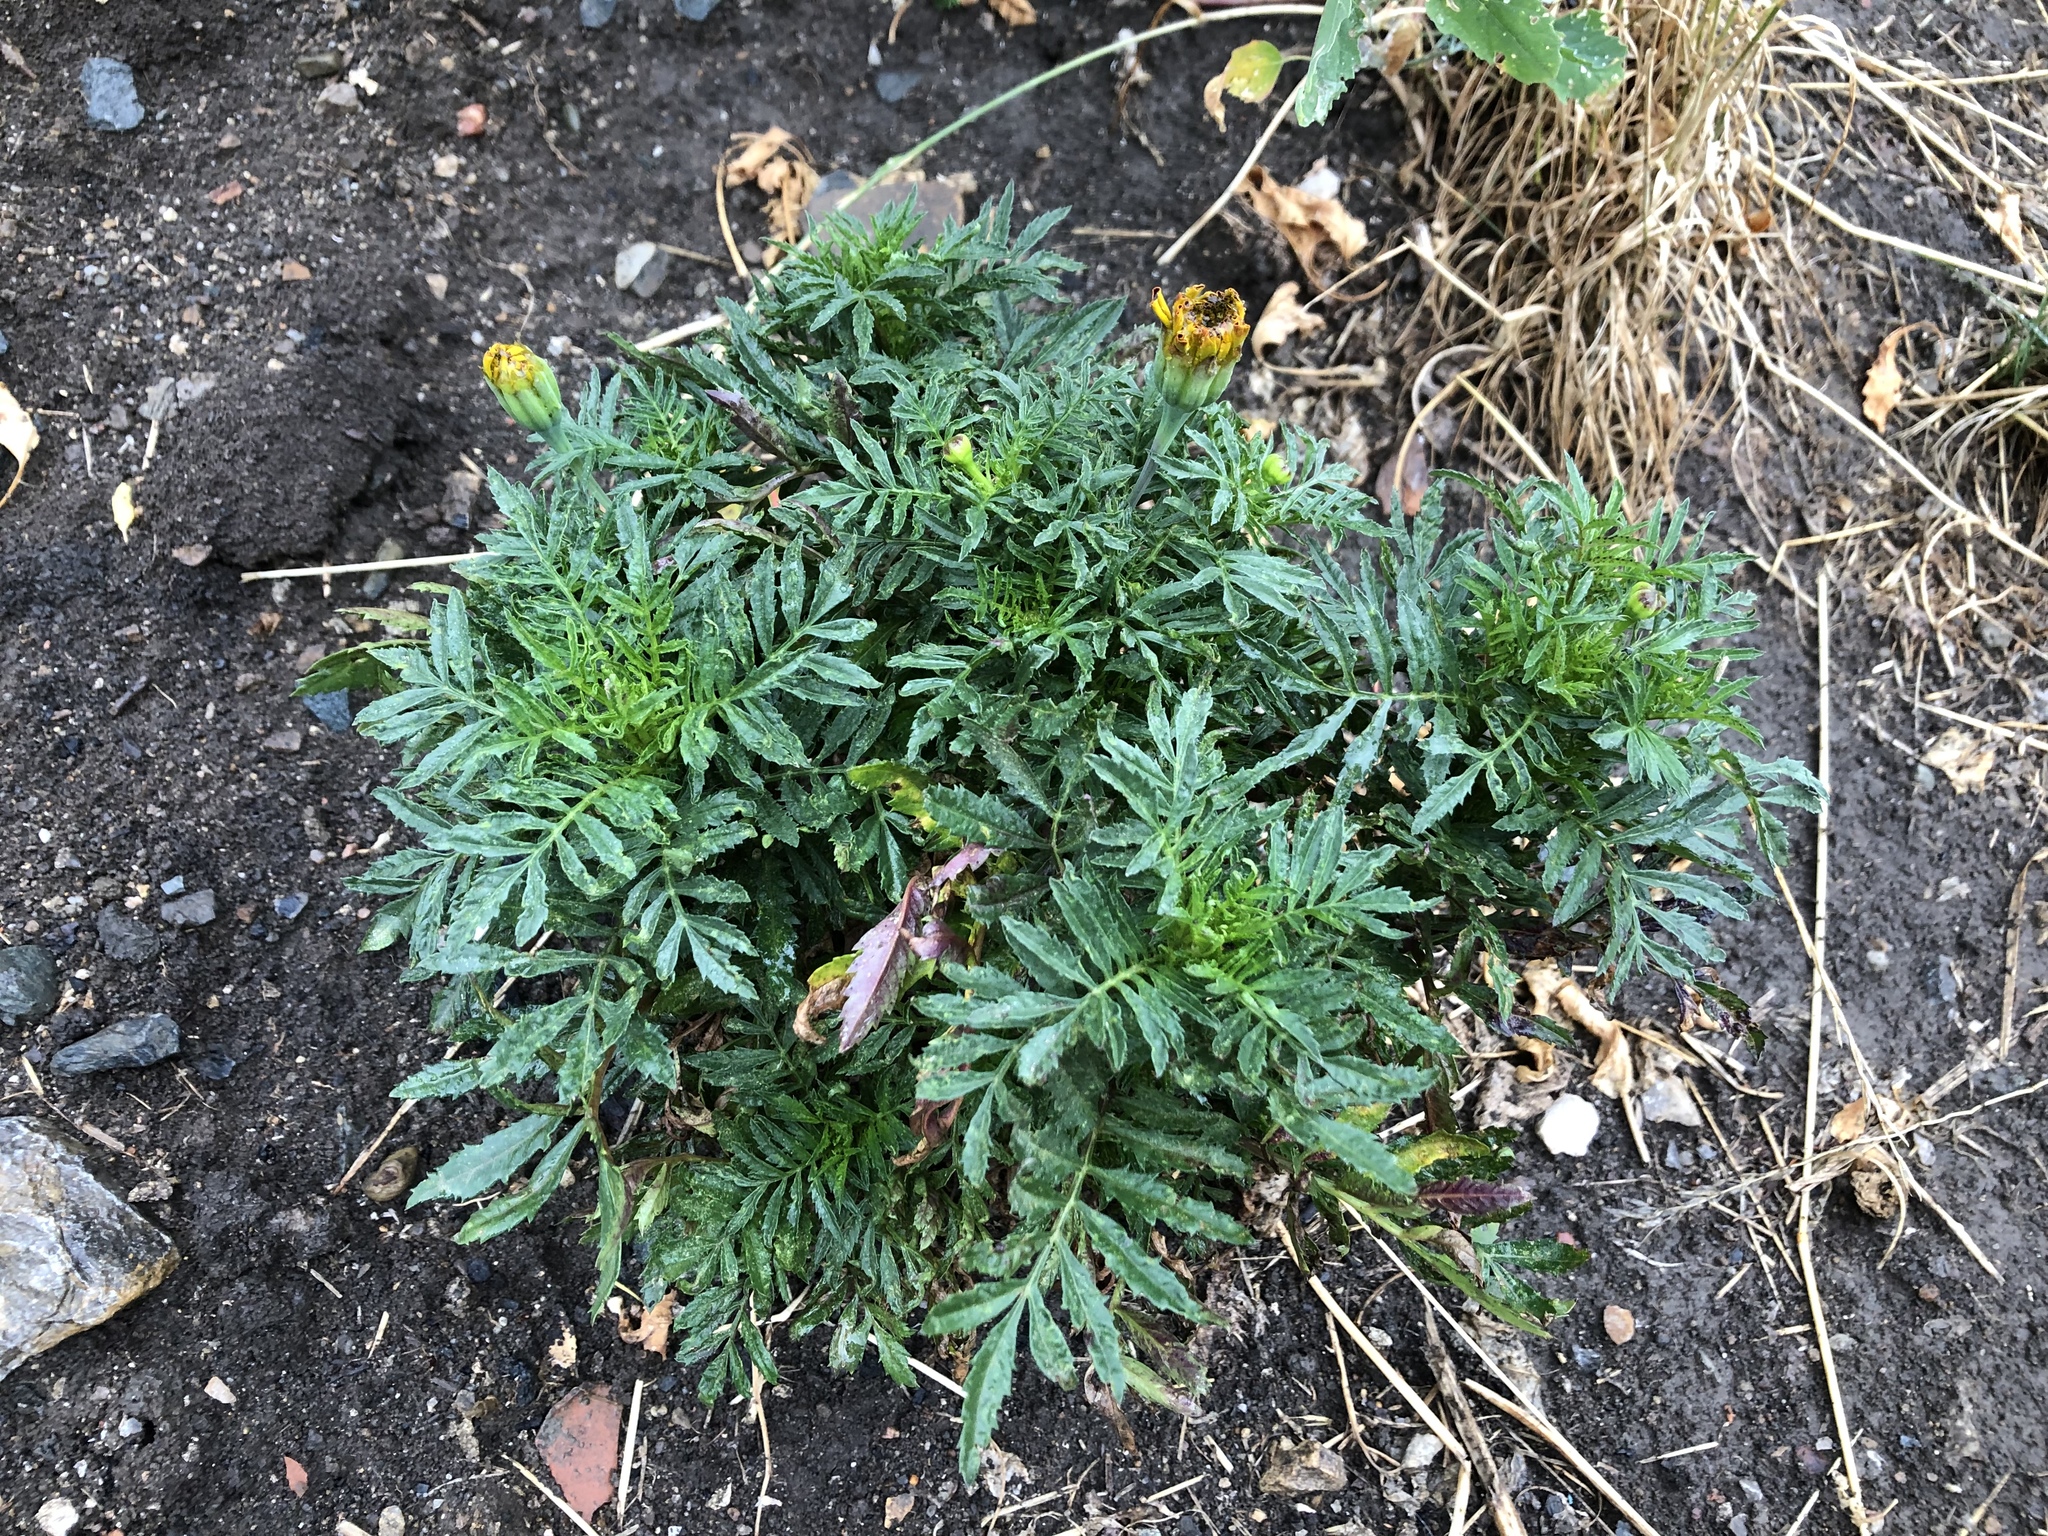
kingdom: Plantae
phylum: Tracheophyta
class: Magnoliopsida
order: Asterales
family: Asteraceae
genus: Tagetes
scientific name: Tagetes erecta
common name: African marigold
